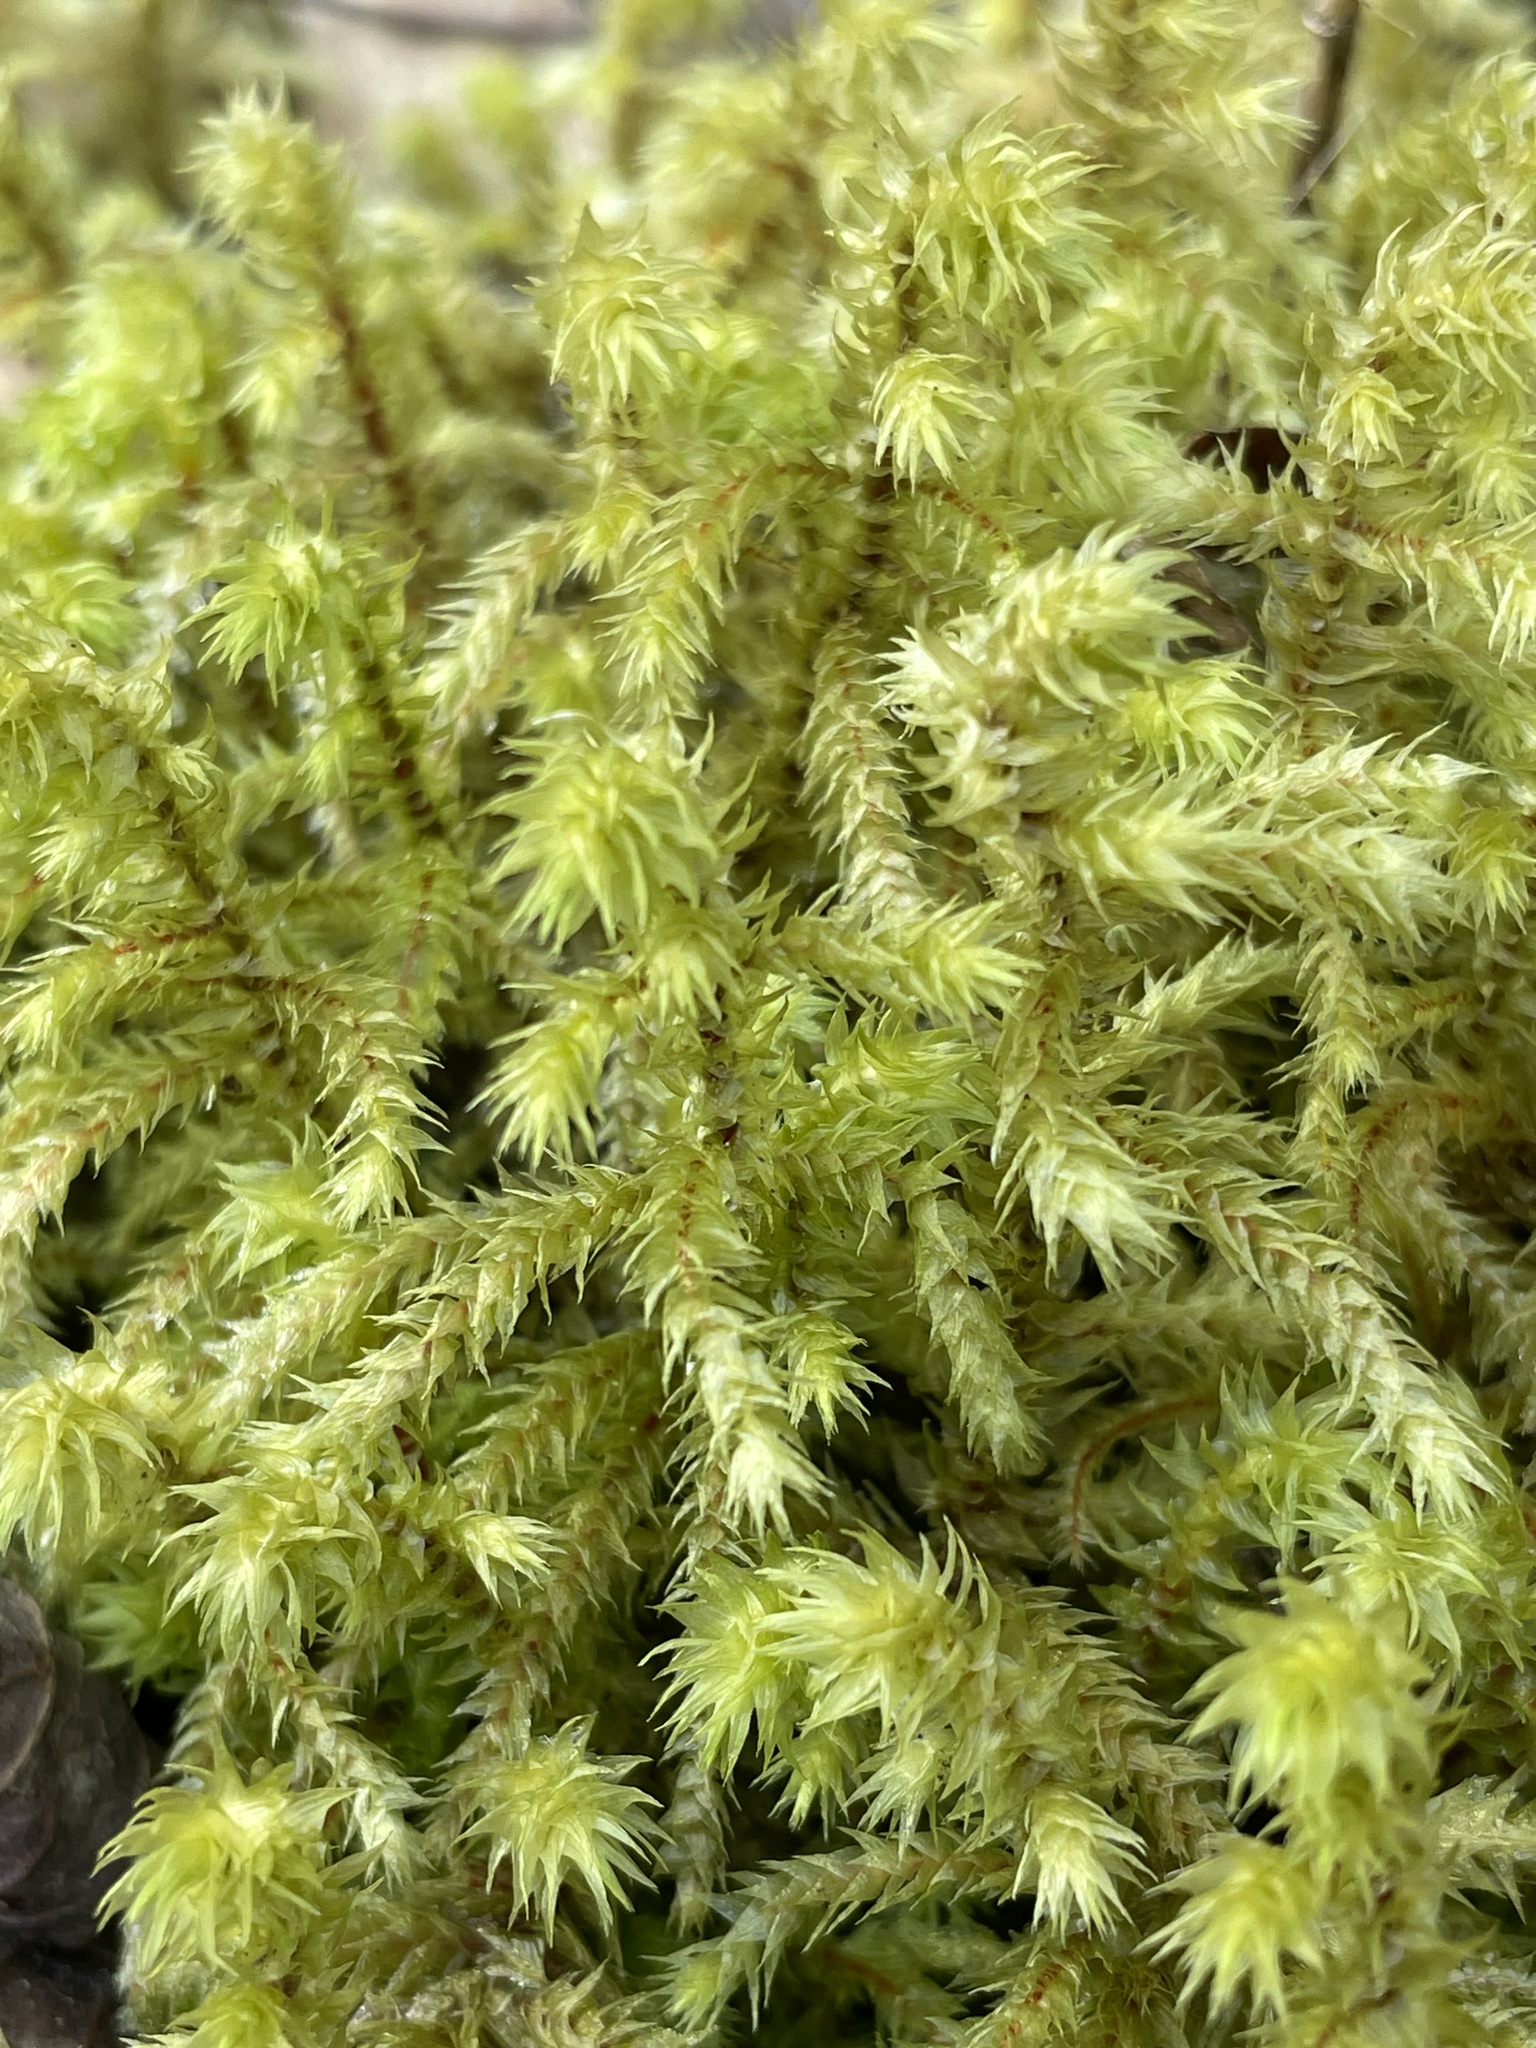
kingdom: Plantae
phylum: Bryophyta
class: Bryopsida
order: Hypnales
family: Hylocomiaceae
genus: Hylocomiadelphus
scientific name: Hylocomiadelphus triquetrus
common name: Rough goose neck moss
